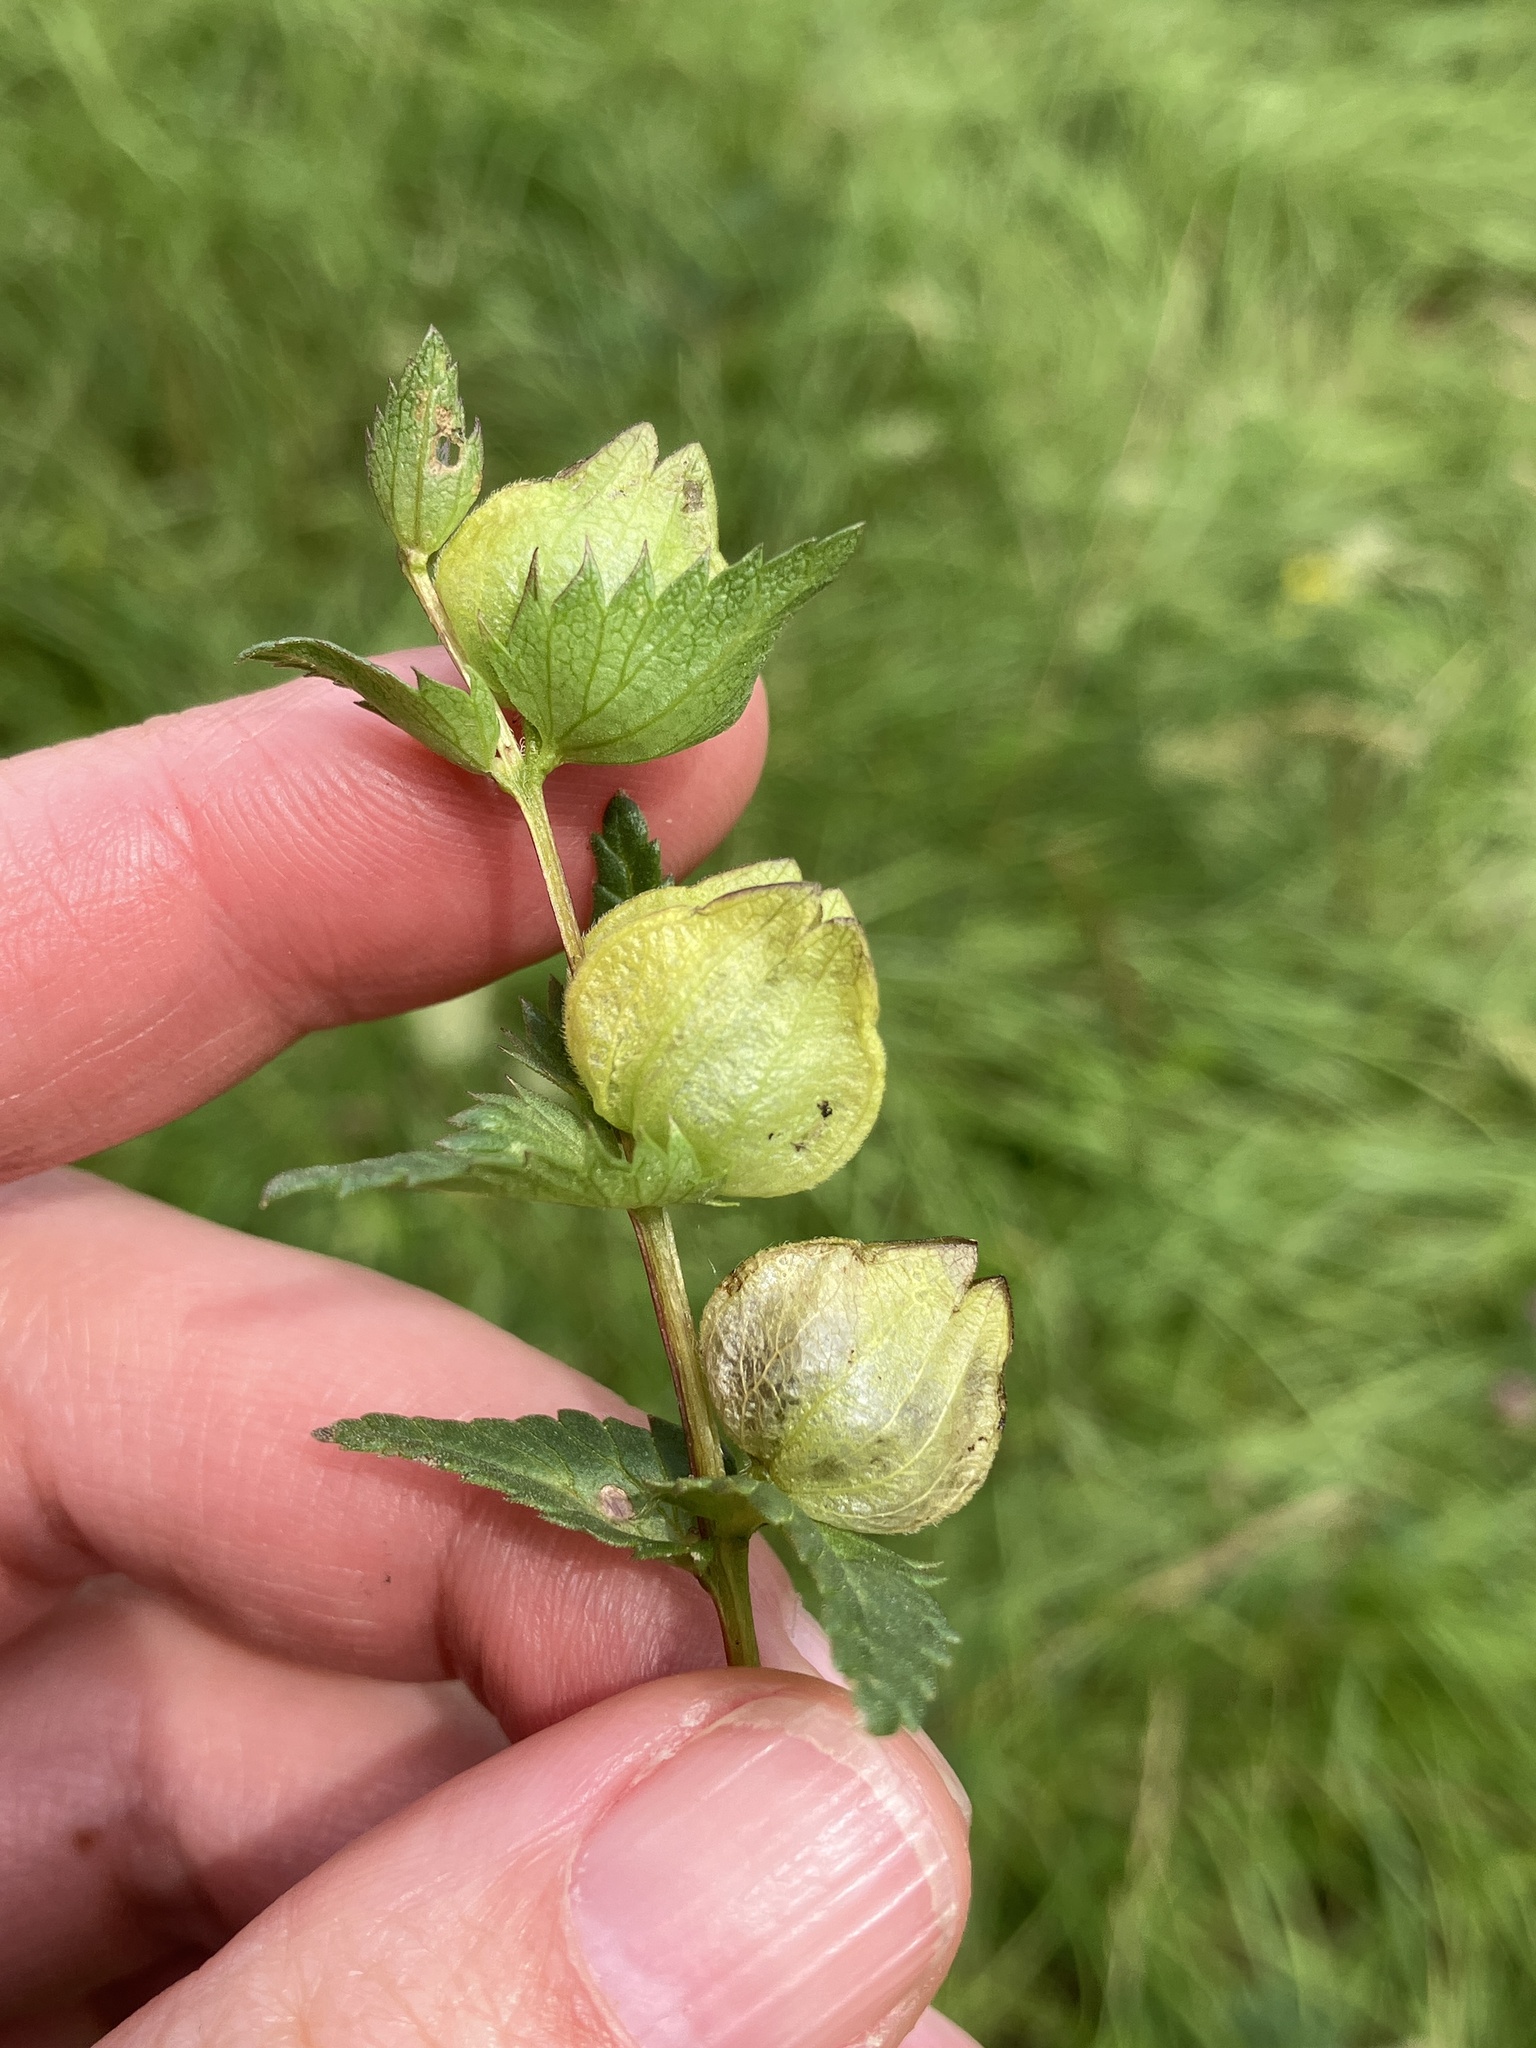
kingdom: Plantae
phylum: Tracheophyta
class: Magnoliopsida
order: Lamiales
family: Orobanchaceae
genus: Rhinanthus
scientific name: Rhinanthus minor
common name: Yellow-rattle
